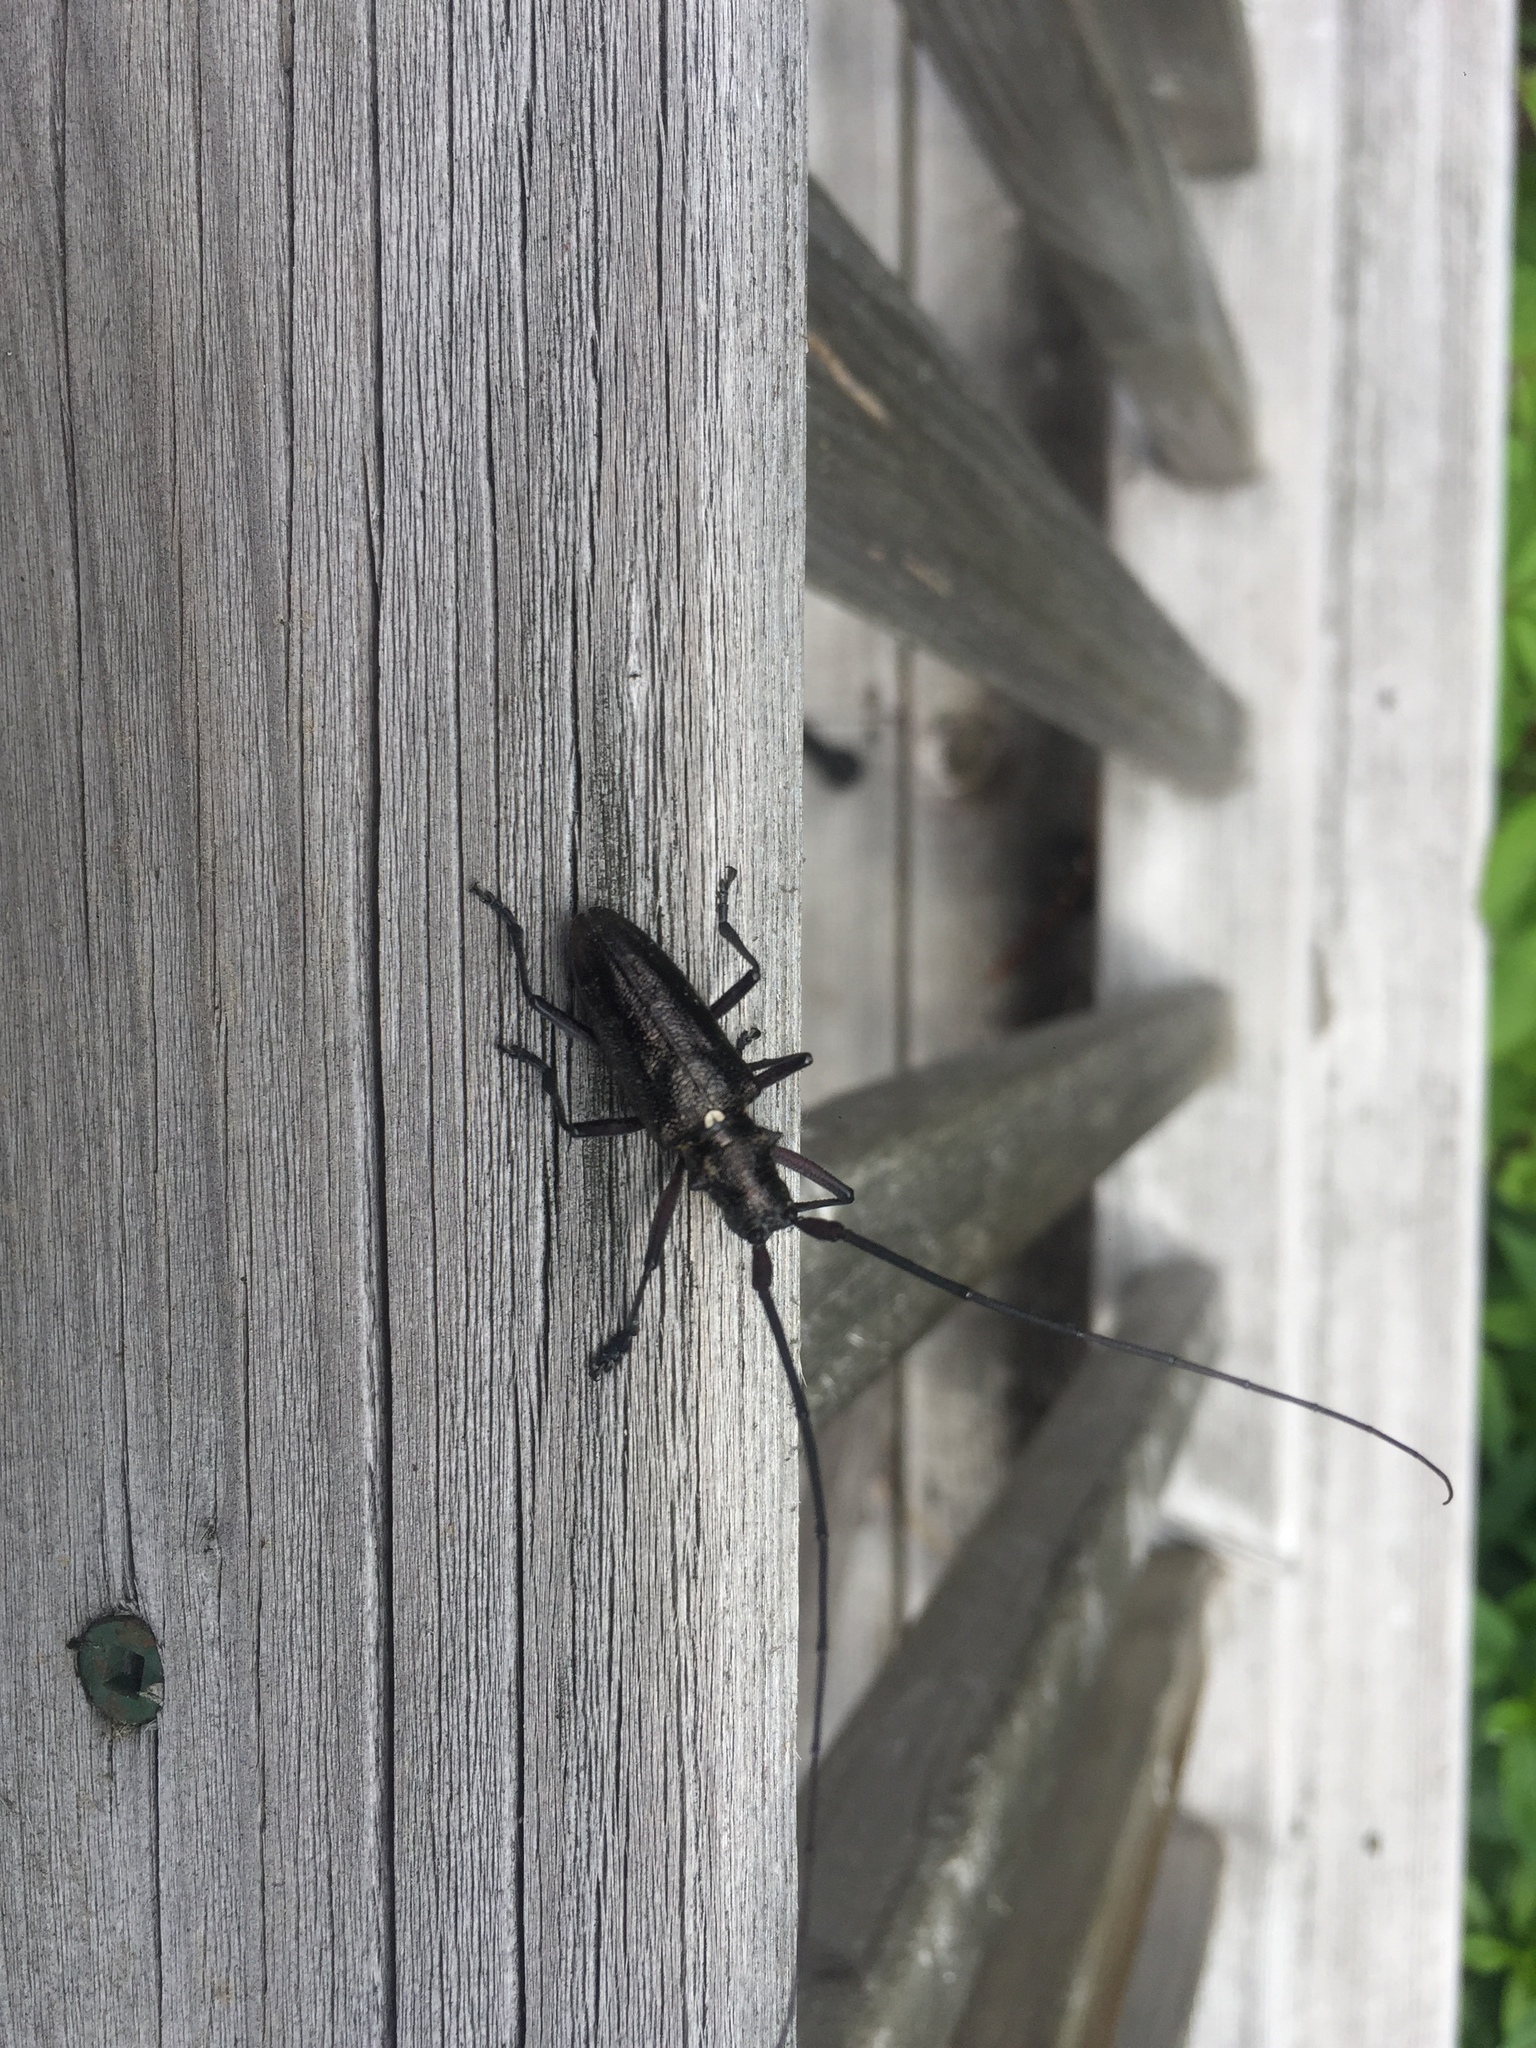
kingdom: Animalia
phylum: Arthropoda
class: Insecta
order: Coleoptera
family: Cerambycidae
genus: Monochamus
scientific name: Monochamus scutellatus
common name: White-spotted sawyer beetle
